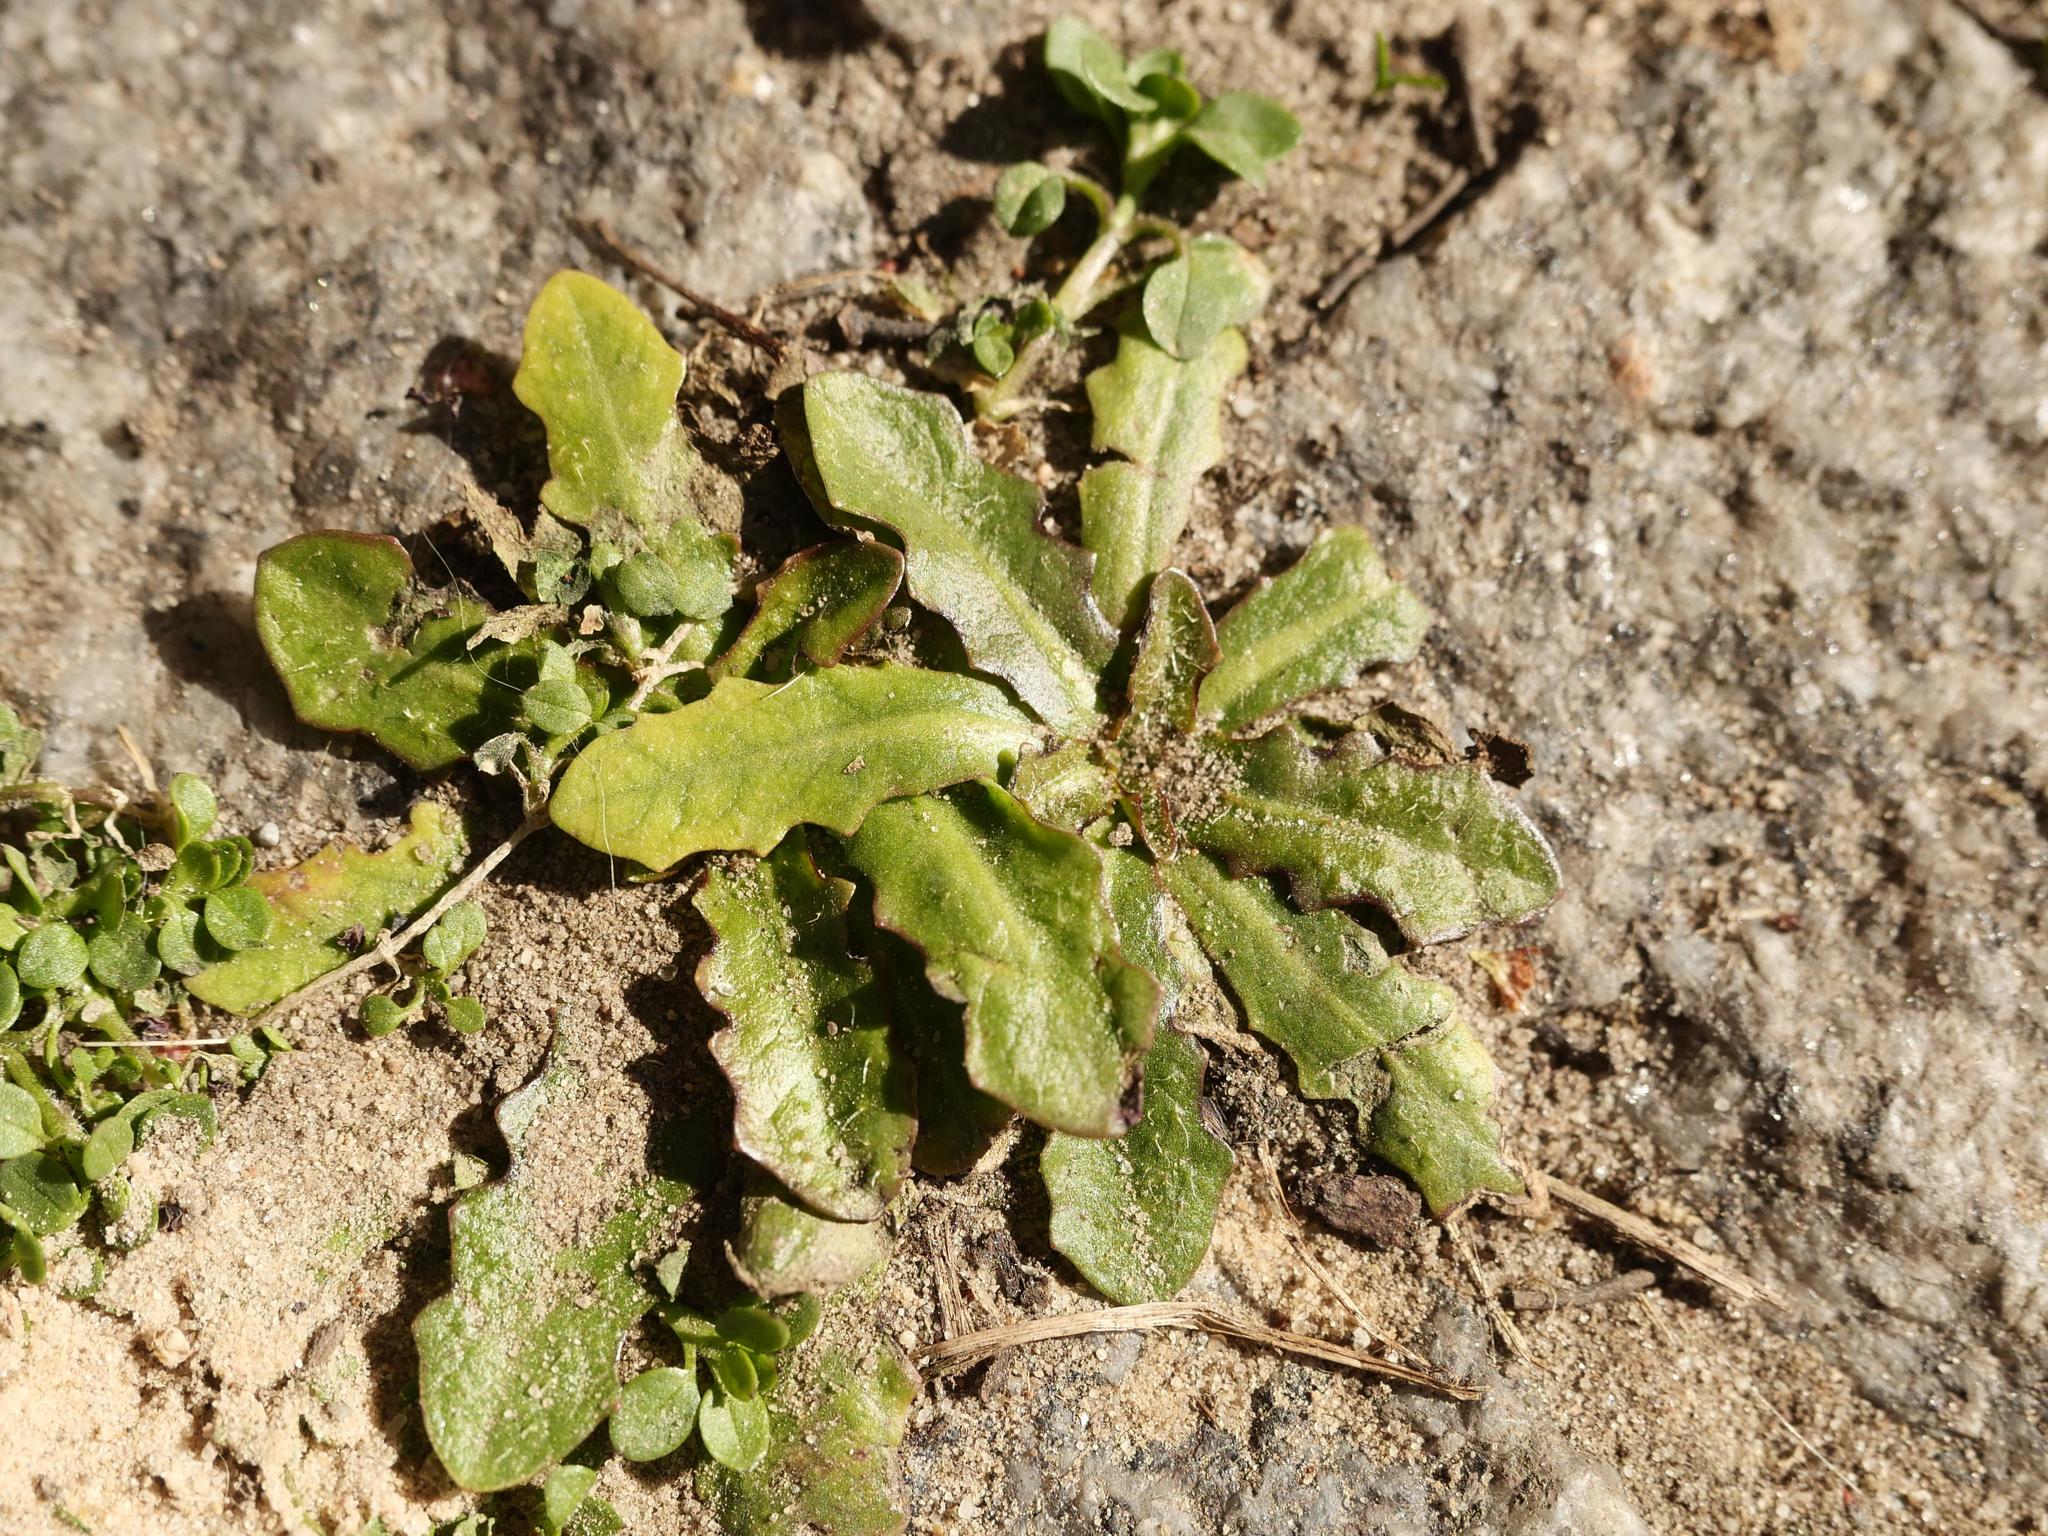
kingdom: Plantae
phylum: Tracheophyta
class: Magnoliopsida
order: Asterales
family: Asteraceae
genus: Hypochaeris
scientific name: Hypochaeris radicata
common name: Flatweed
